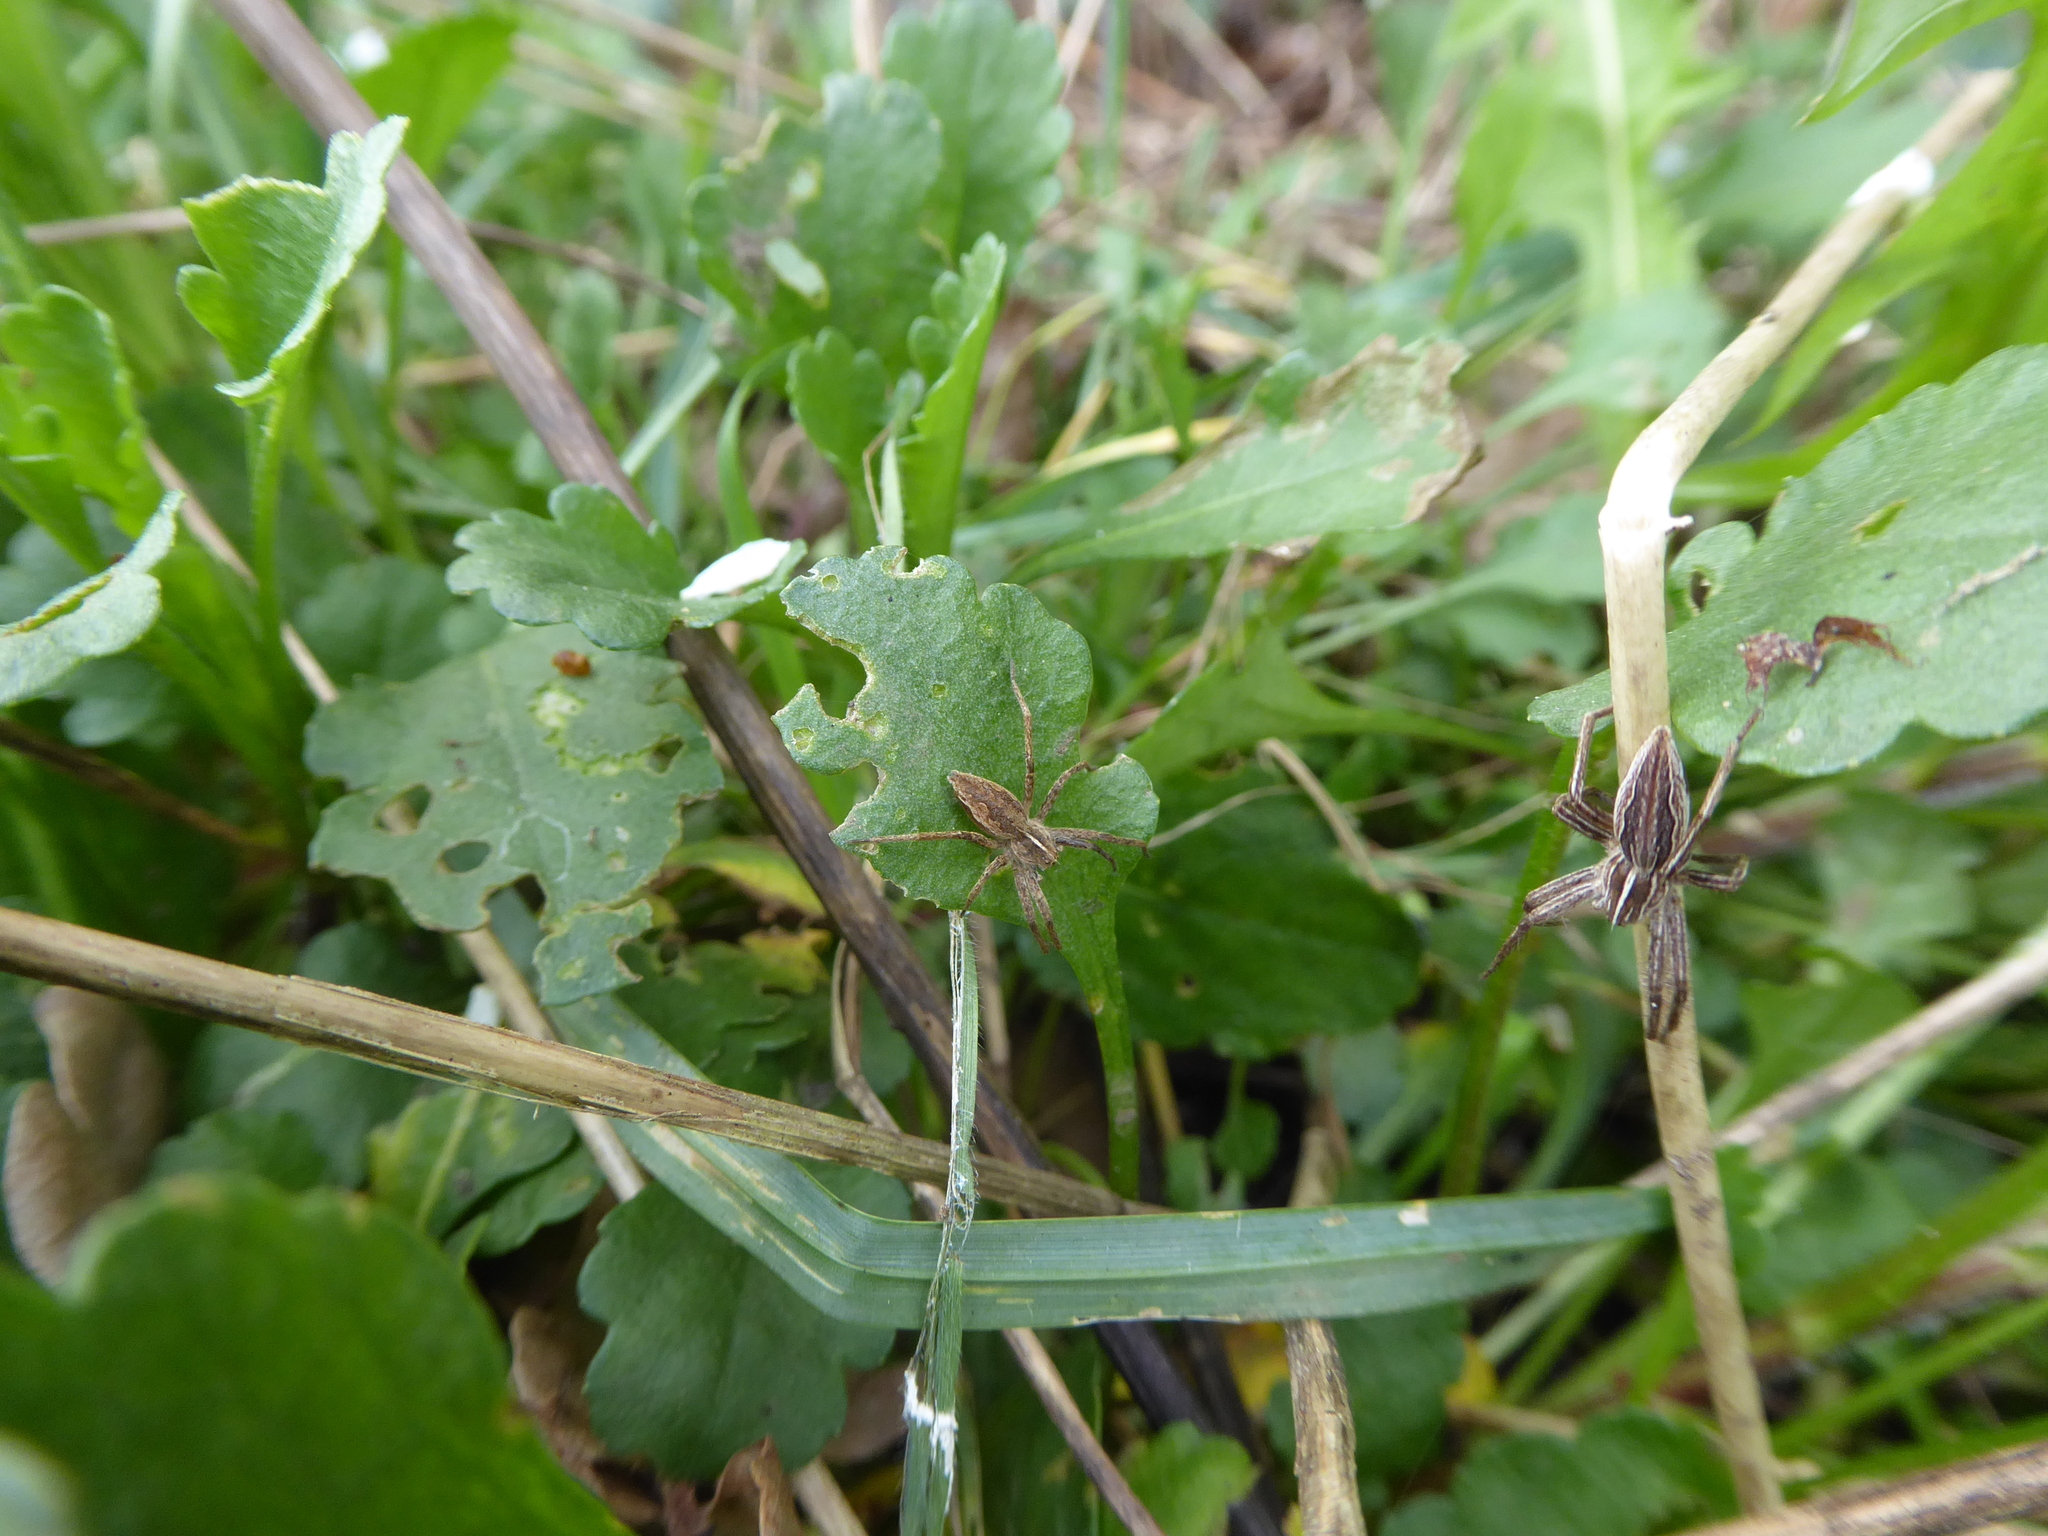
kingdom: Animalia
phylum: Arthropoda
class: Arachnida
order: Araneae
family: Pisauridae
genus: Pisaura
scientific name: Pisaura mirabilis
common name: Tent spider
